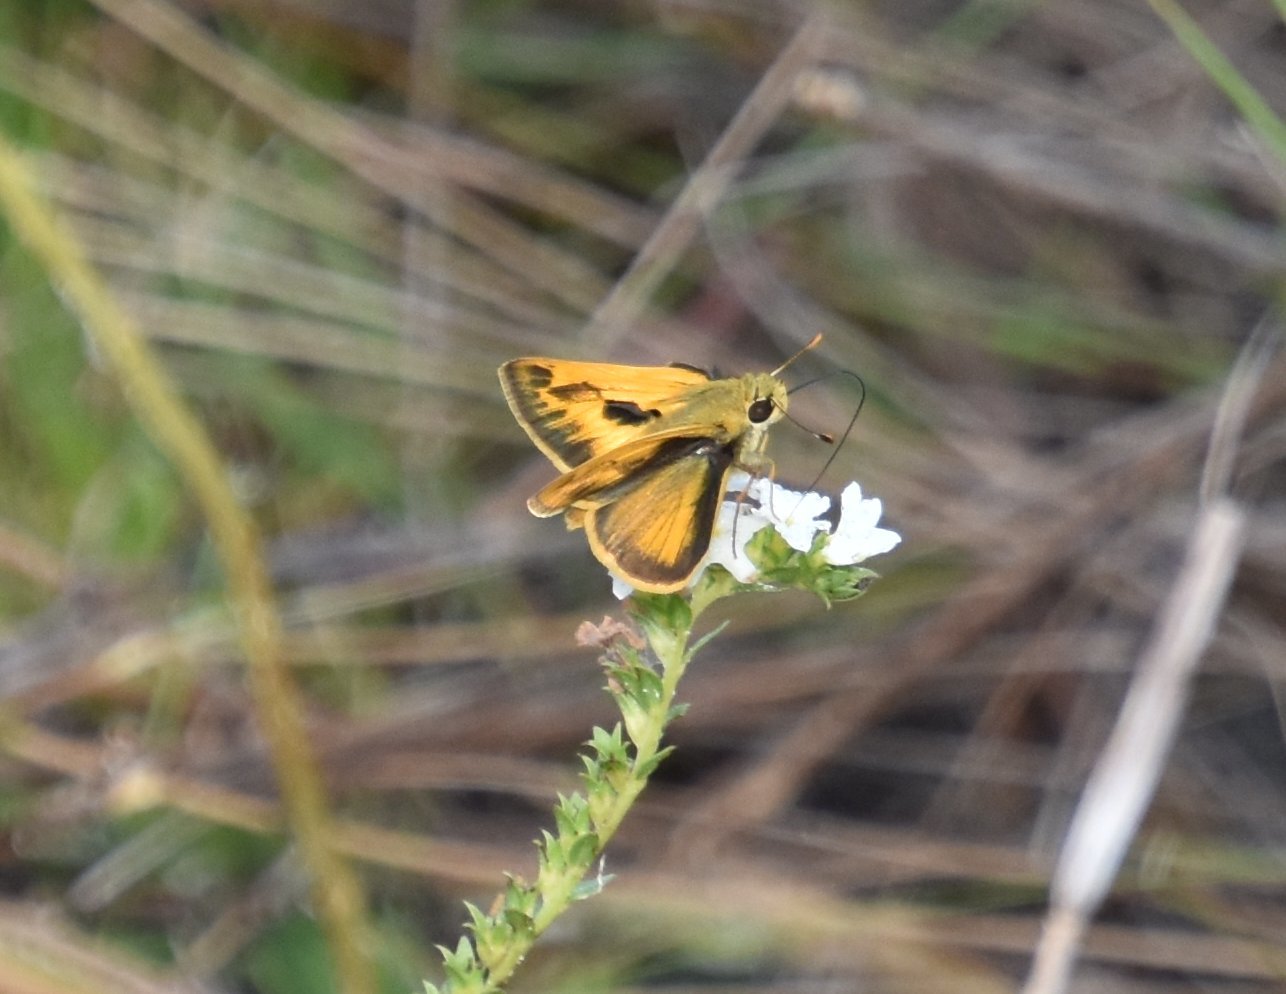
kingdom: Animalia
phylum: Arthropoda
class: Insecta
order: Lepidoptera
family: Hesperiidae
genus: Polites
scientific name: Polites vibex
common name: Whirlabout
